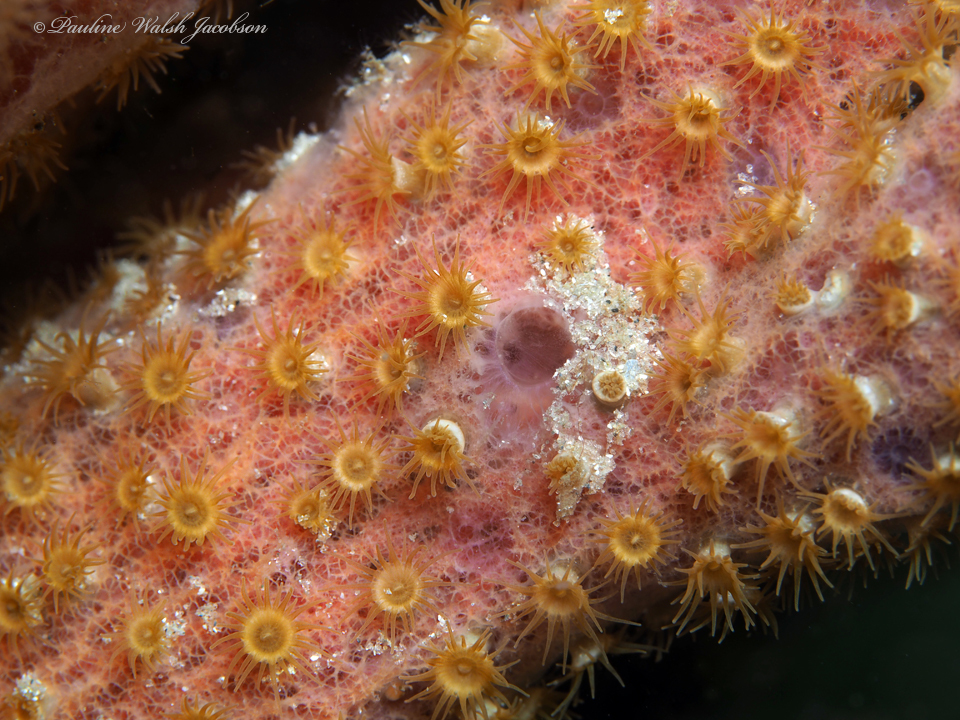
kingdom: Animalia
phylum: Cnidaria
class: Anthozoa
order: Zoantharia
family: Parazoanthidae
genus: Umimayanthus
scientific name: Umimayanthus parasiticus
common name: Sponge zoanthid
